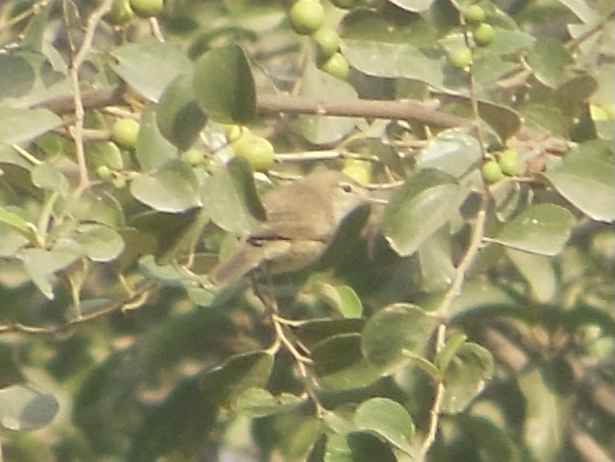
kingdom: Animalia
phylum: Chordata
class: Aves
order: Passeriformes
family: Acrocephalidae
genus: Acrocephalus
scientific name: Acrocephalus dumetorum
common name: Blyth's reed warbler
